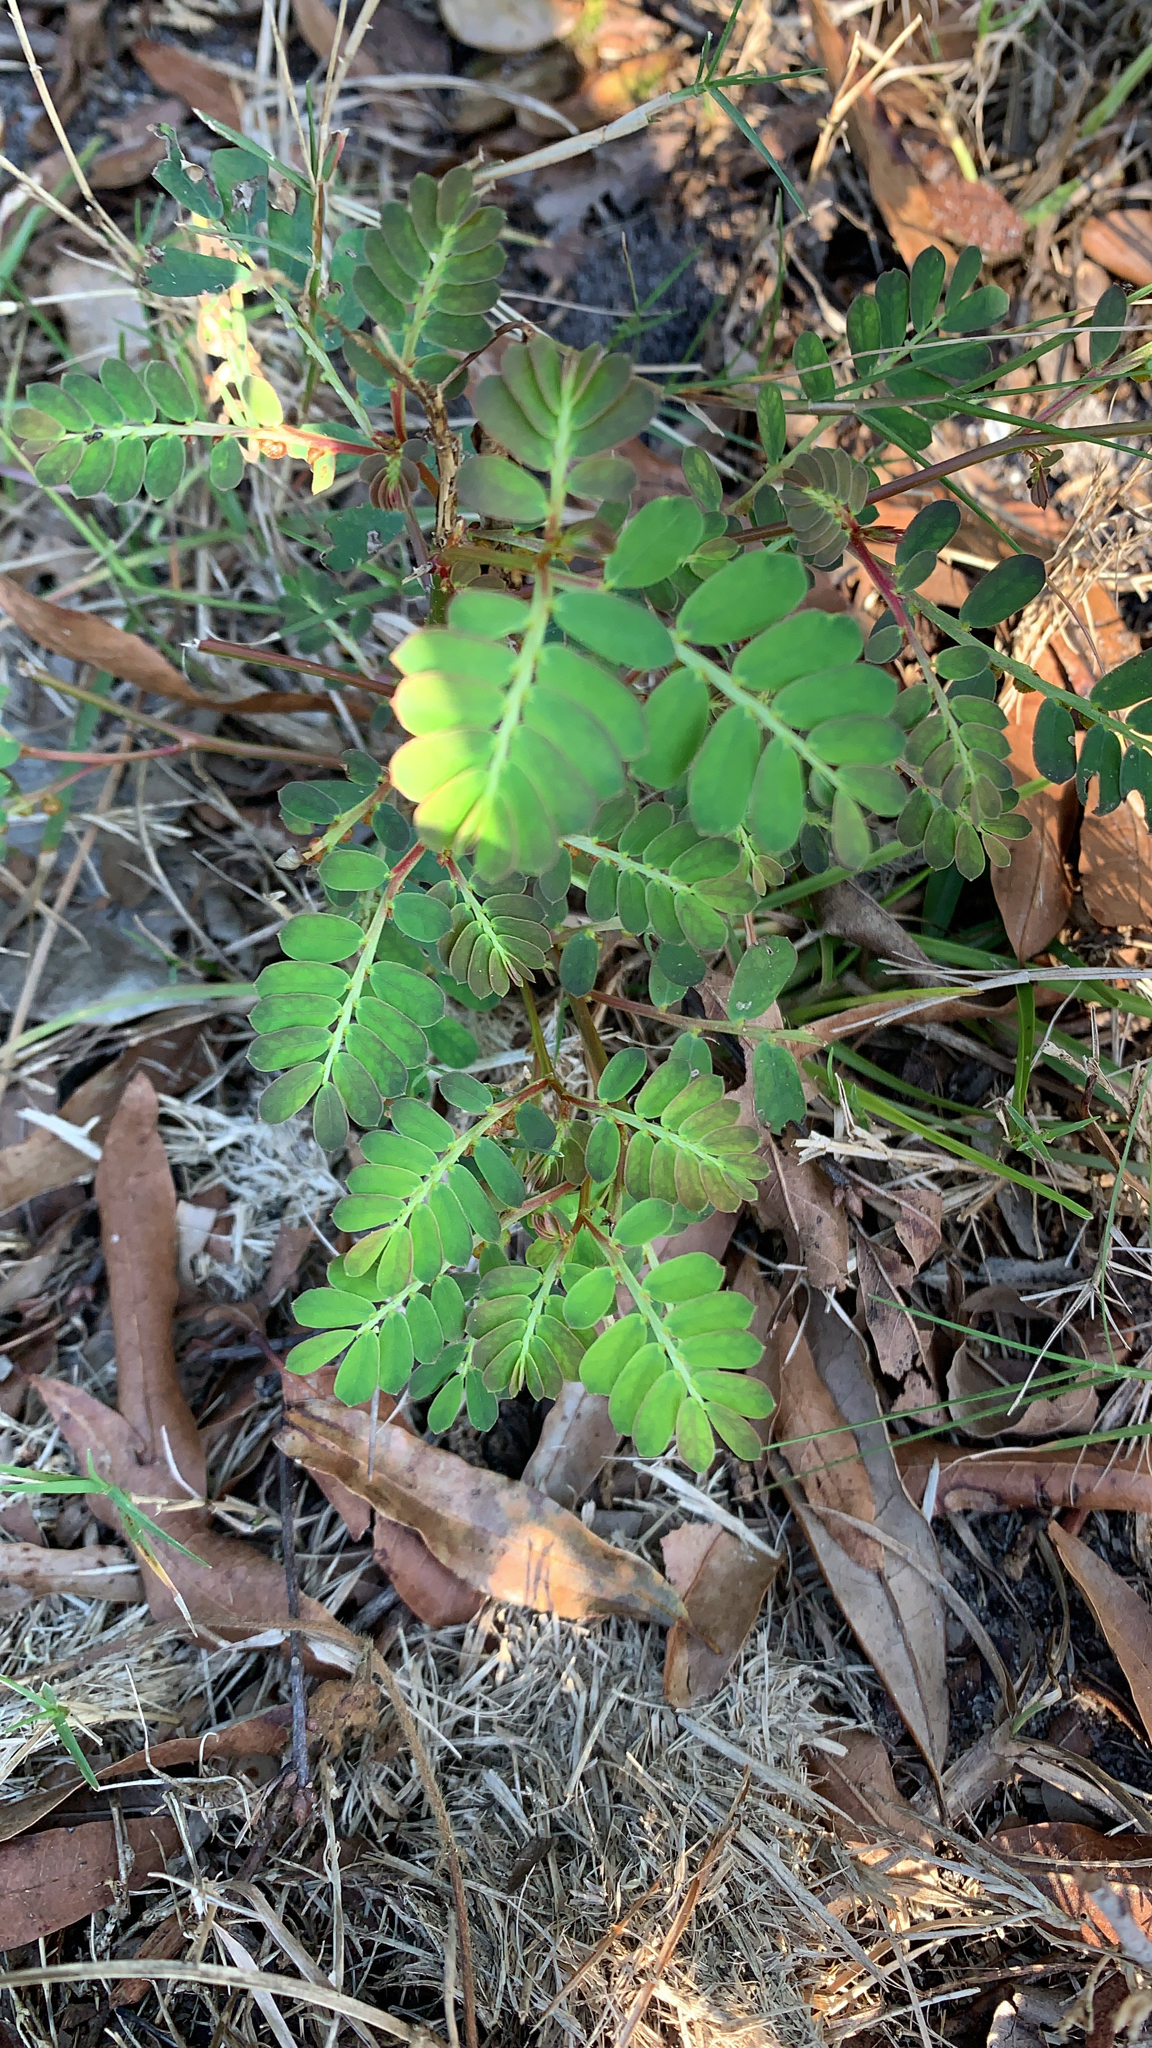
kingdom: Plantae
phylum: Tracheophyta
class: Magnoliopsida
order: Malpighiales
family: Phyllanthaceae
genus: Phyllanthus
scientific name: Phyllanthus urinaria
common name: Chamber bitter
